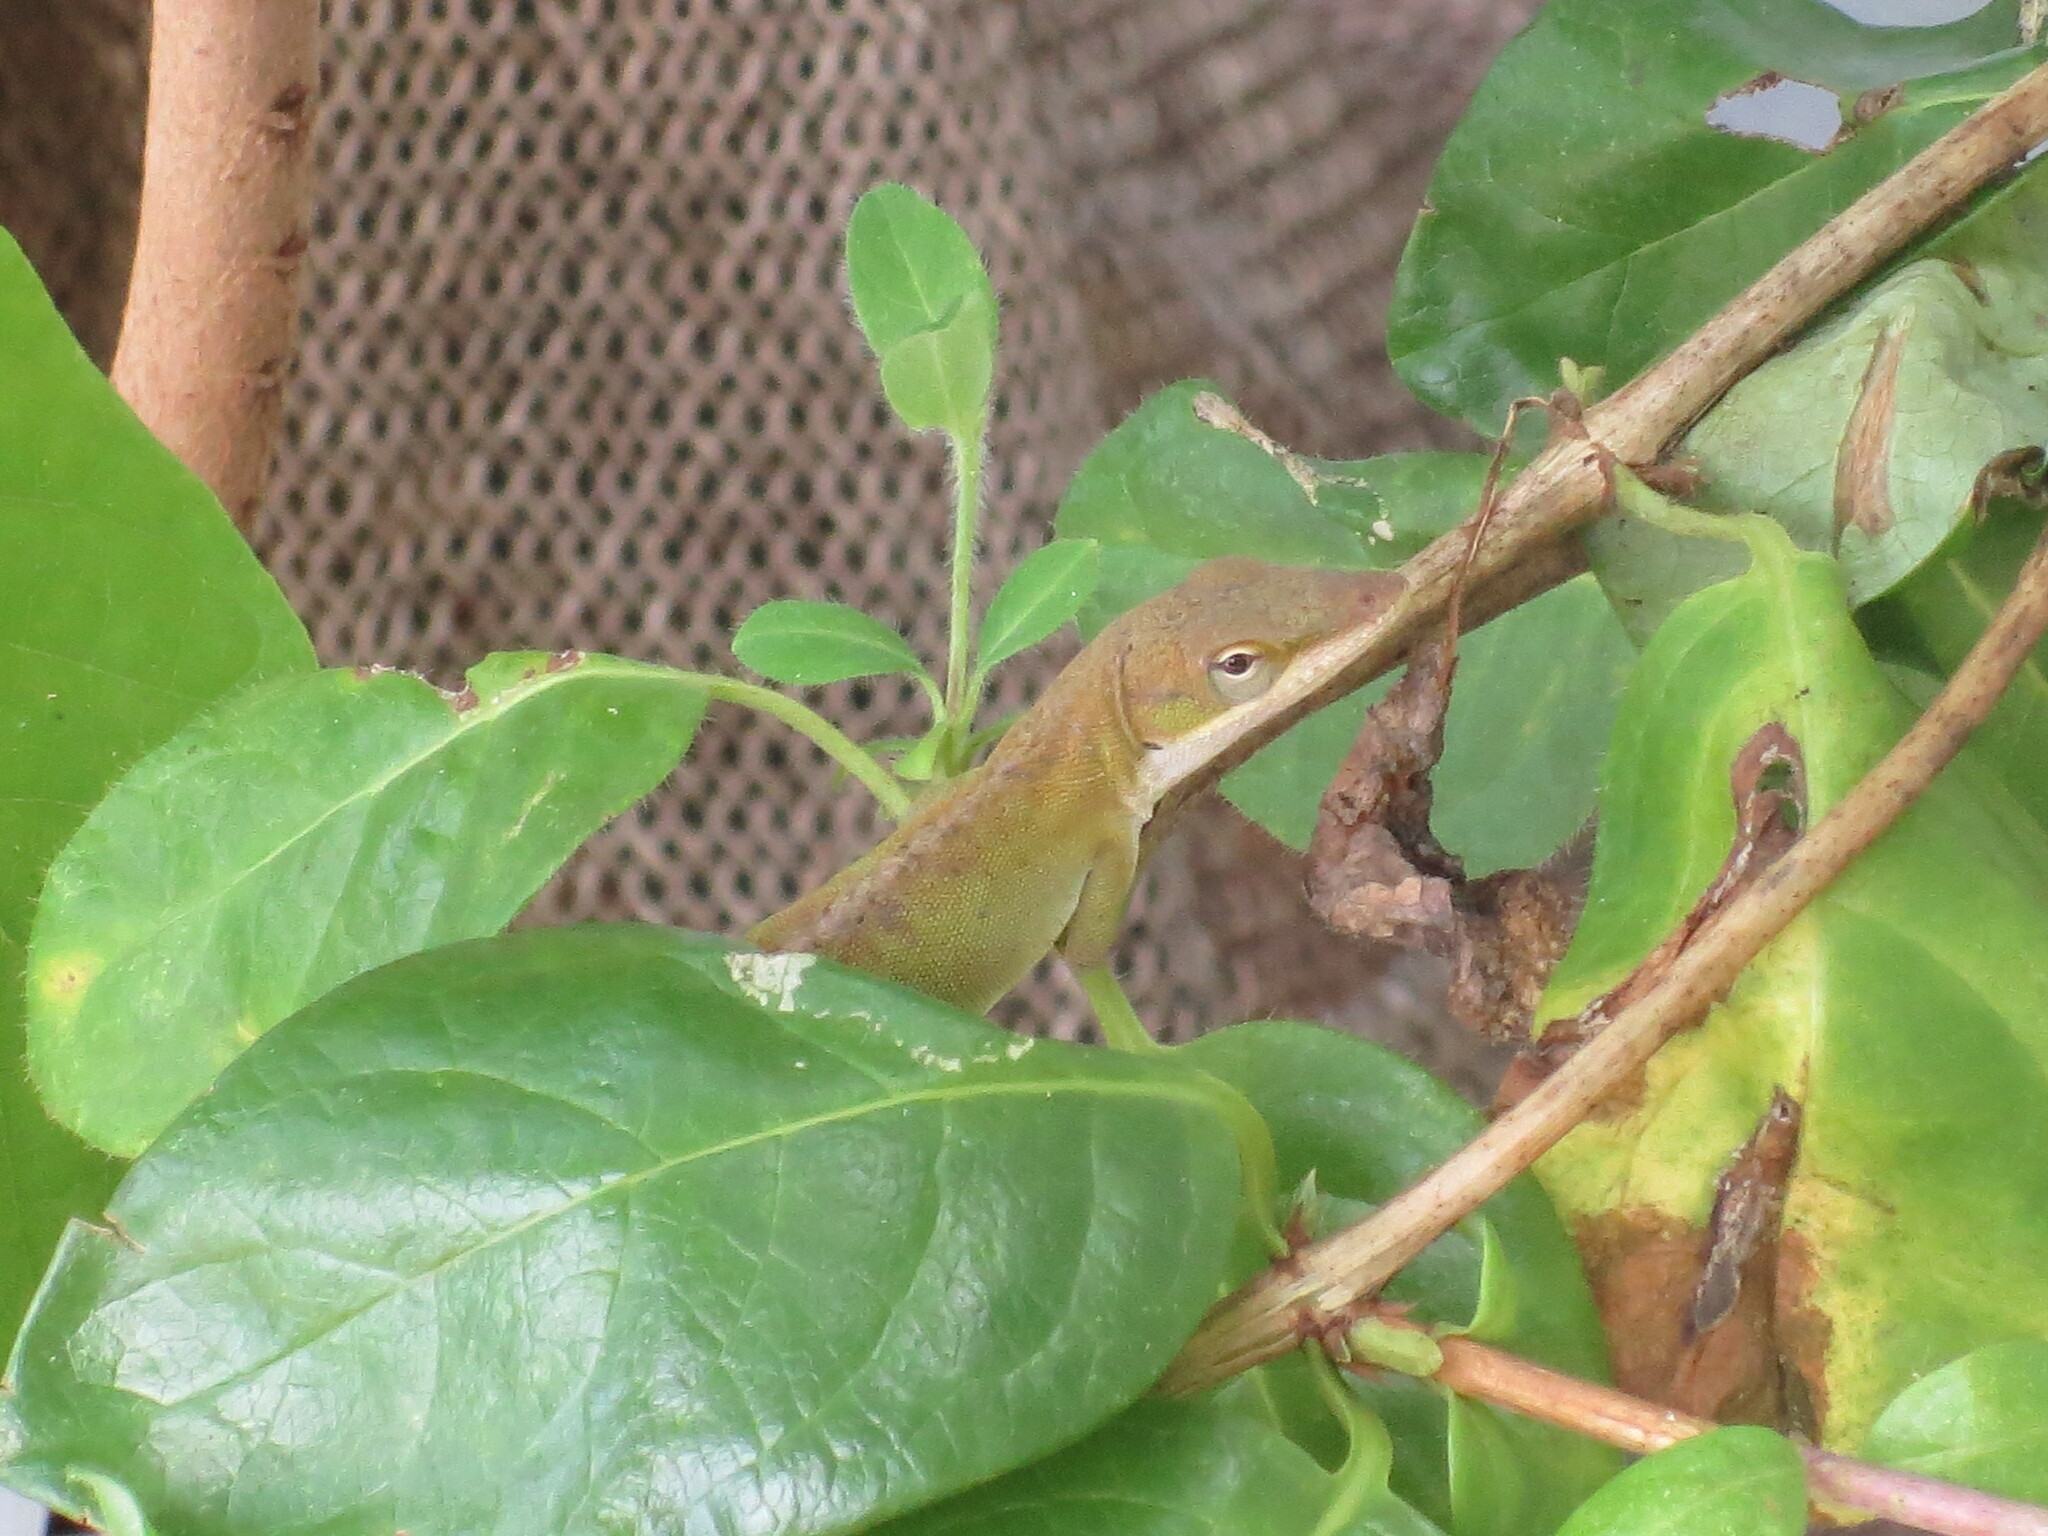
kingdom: Animalia
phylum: Chordata
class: Squamata
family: Dactyloidae
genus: Anolis
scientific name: Anolis carolinensis
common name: Green anole
